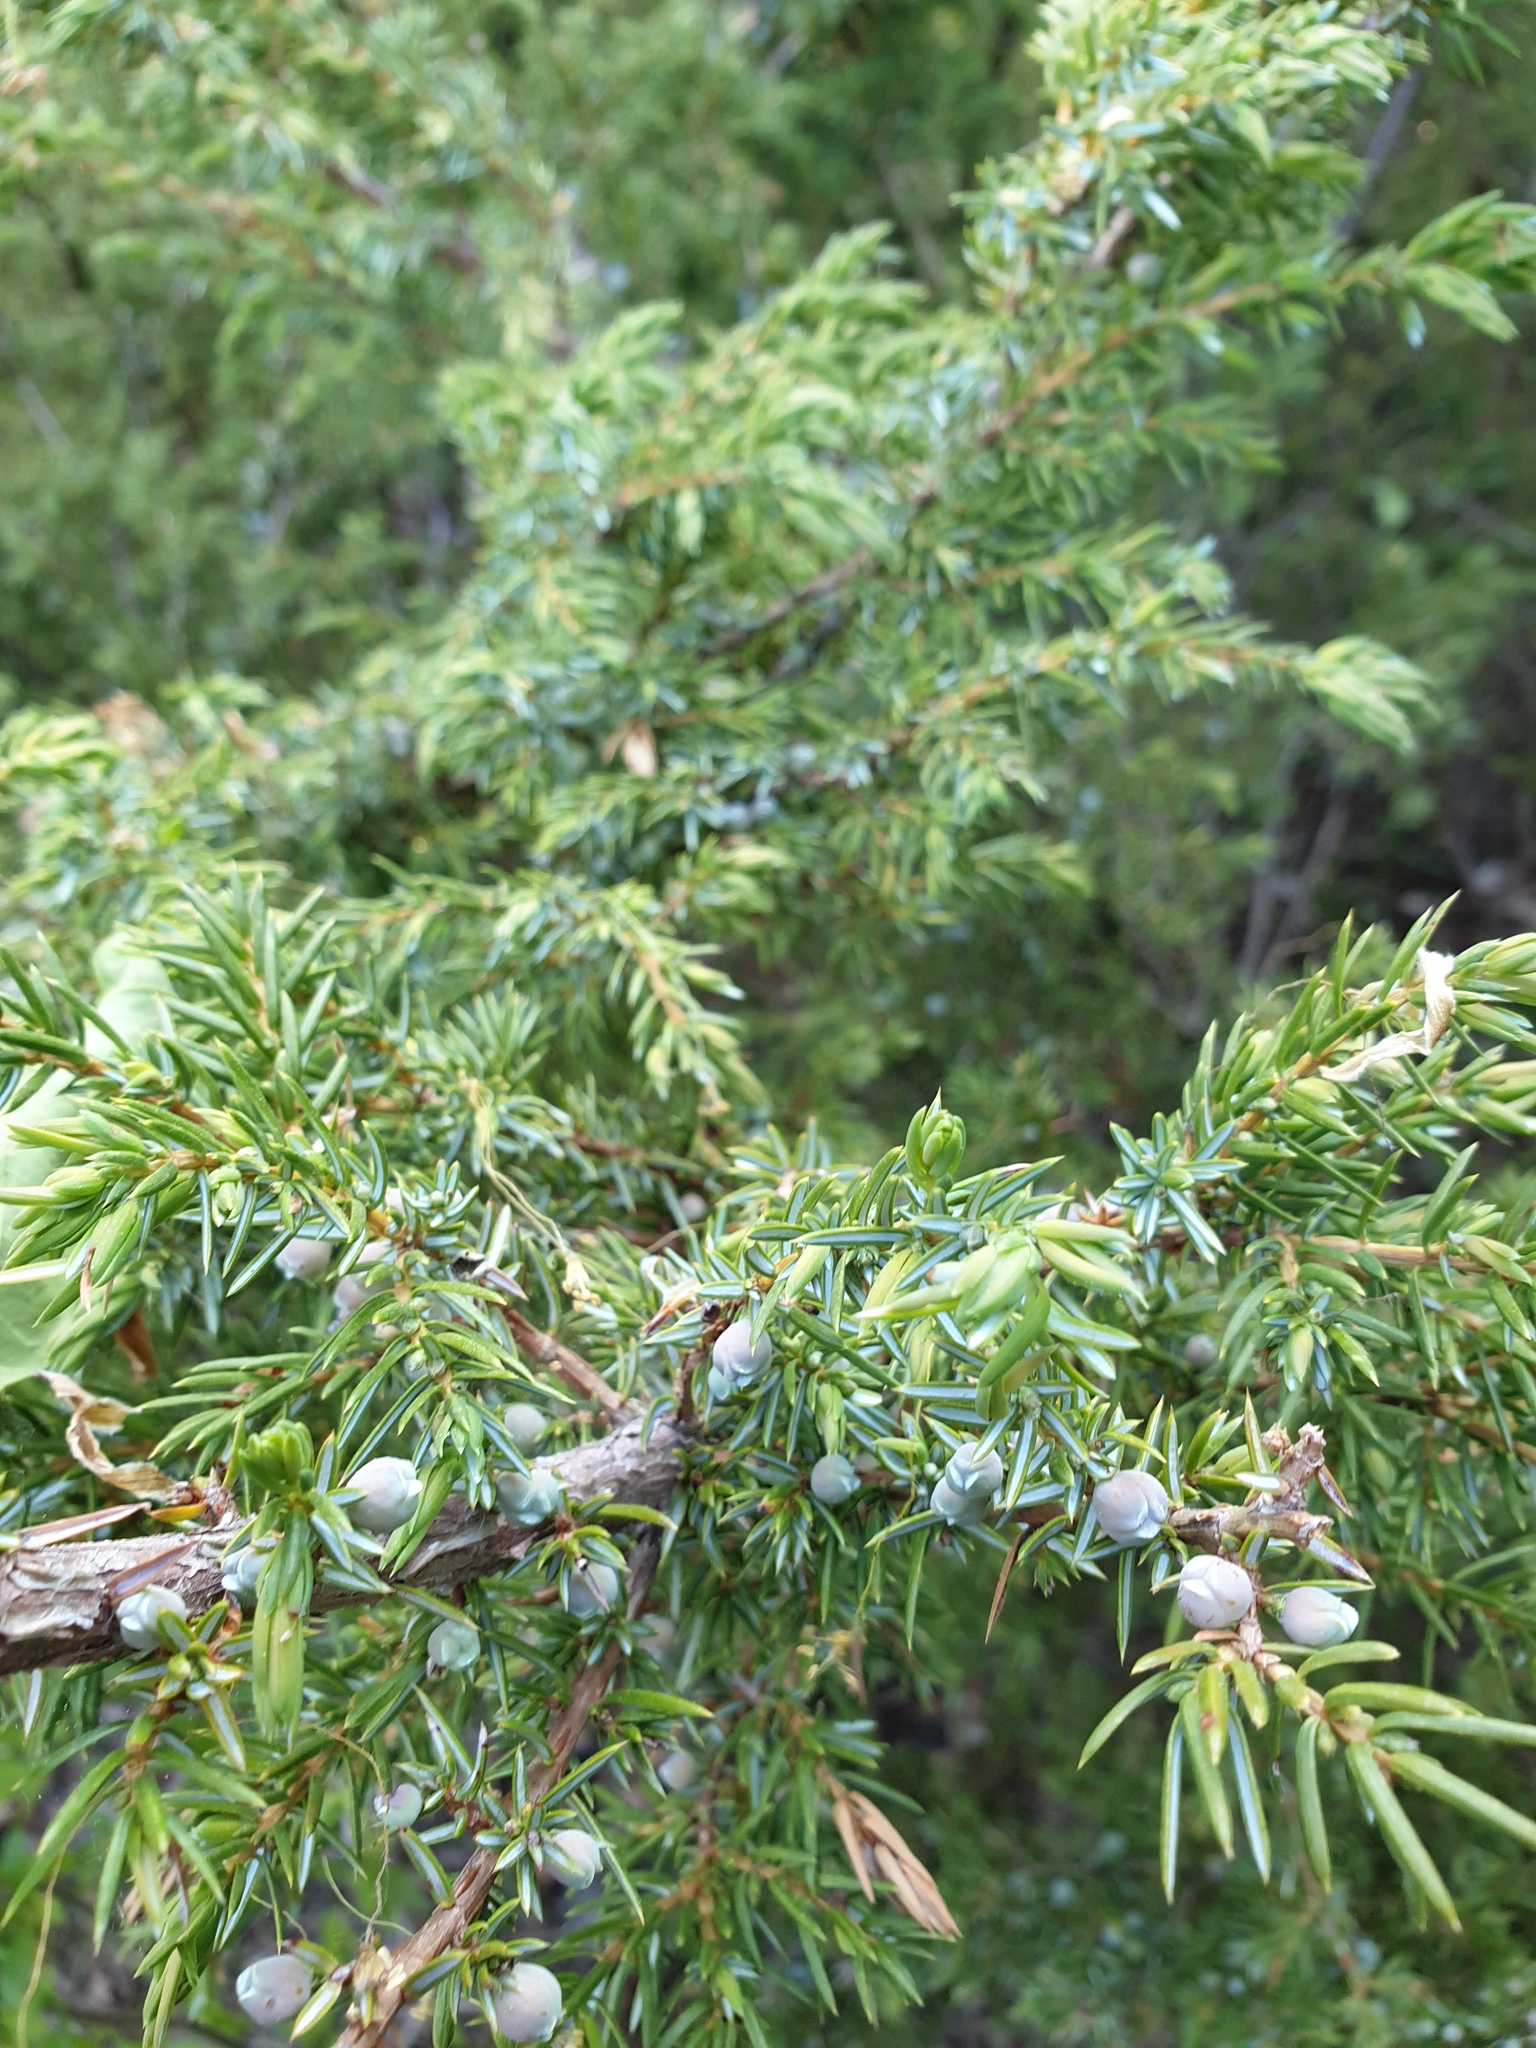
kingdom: Plantae
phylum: Tracheophyta
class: Pinopsida
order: Pinales
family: Cupressaceae
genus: Juniperus
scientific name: Juniperus communis
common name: Common juniper
